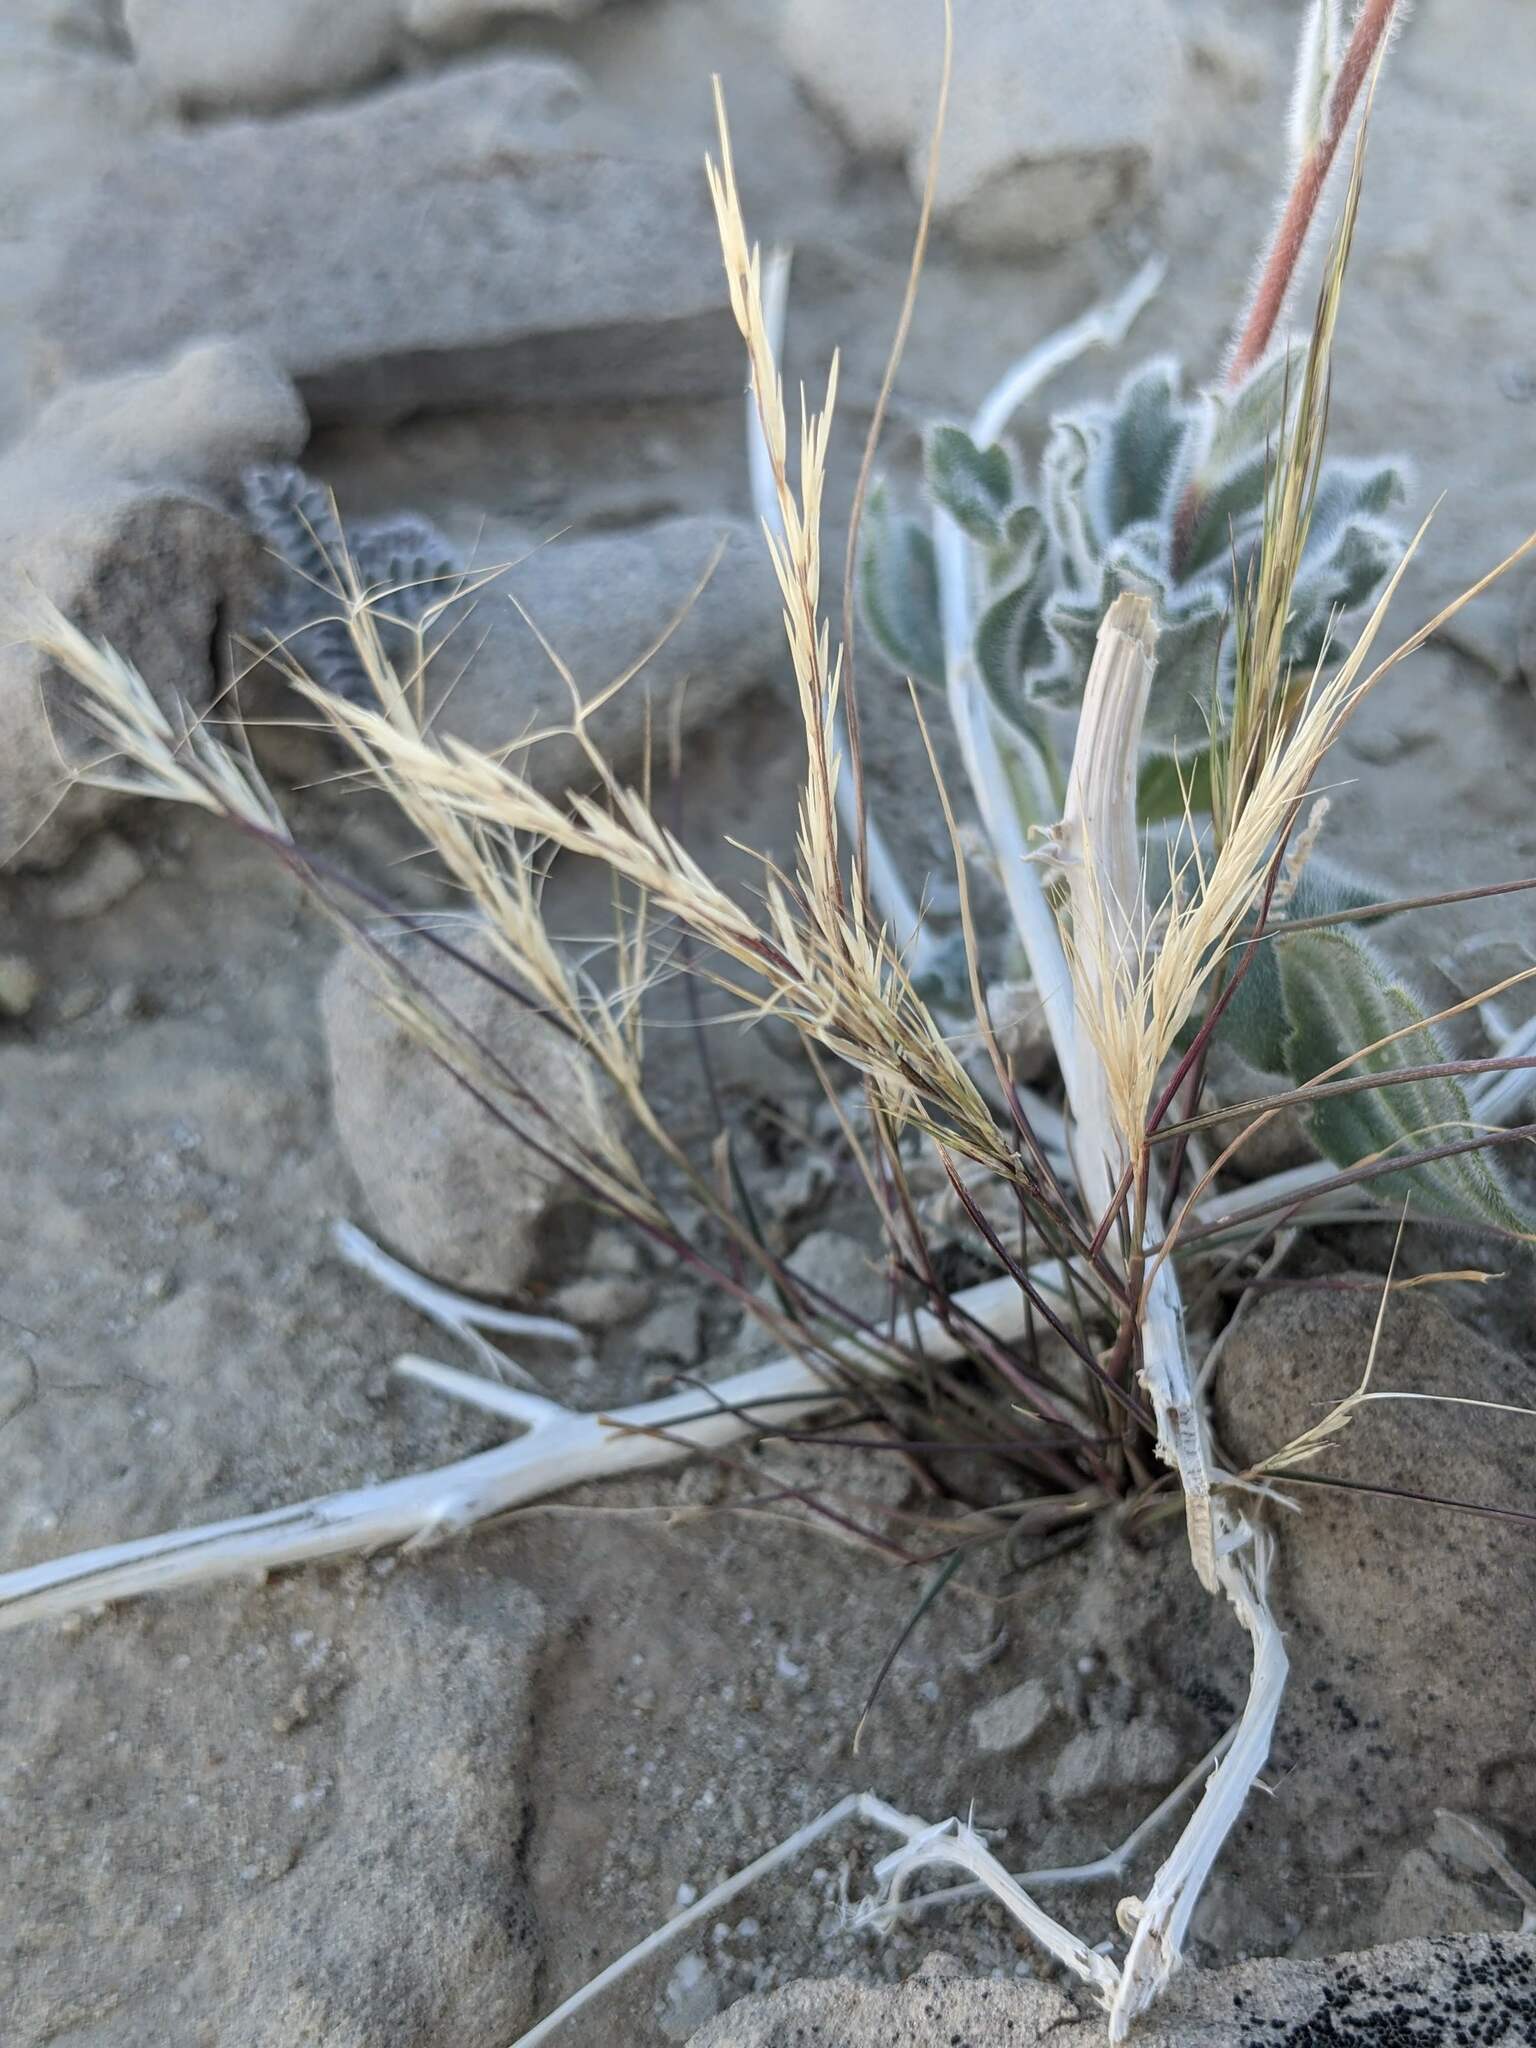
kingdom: Plantae
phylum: Tracheophyta
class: Liliopsida
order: Poales
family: Poaceae
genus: Aristida
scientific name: Aristida adscensionis
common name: Sixweeks threeawn
